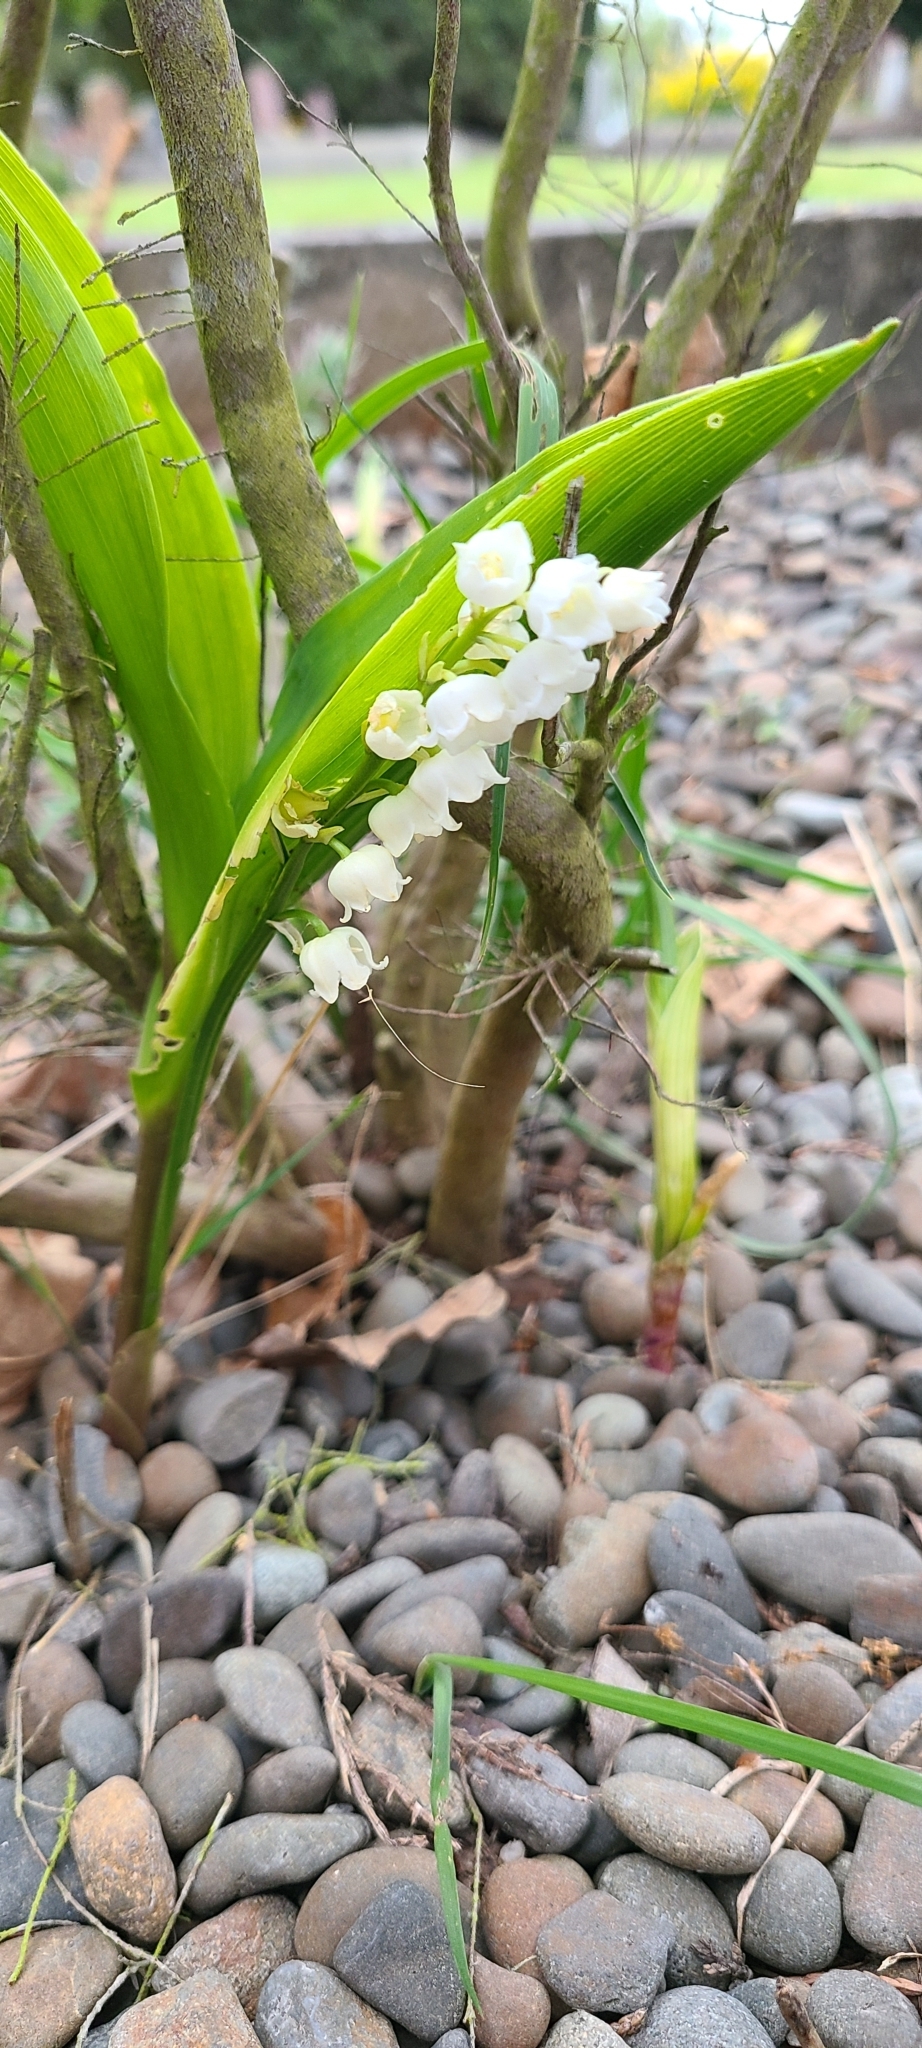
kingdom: Plantae
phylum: Tracheophyta
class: Liliopsida
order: Asparagales
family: Asparagaceae
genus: Convallaria
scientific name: Convallaria majalis
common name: Lily-of-the-valley
